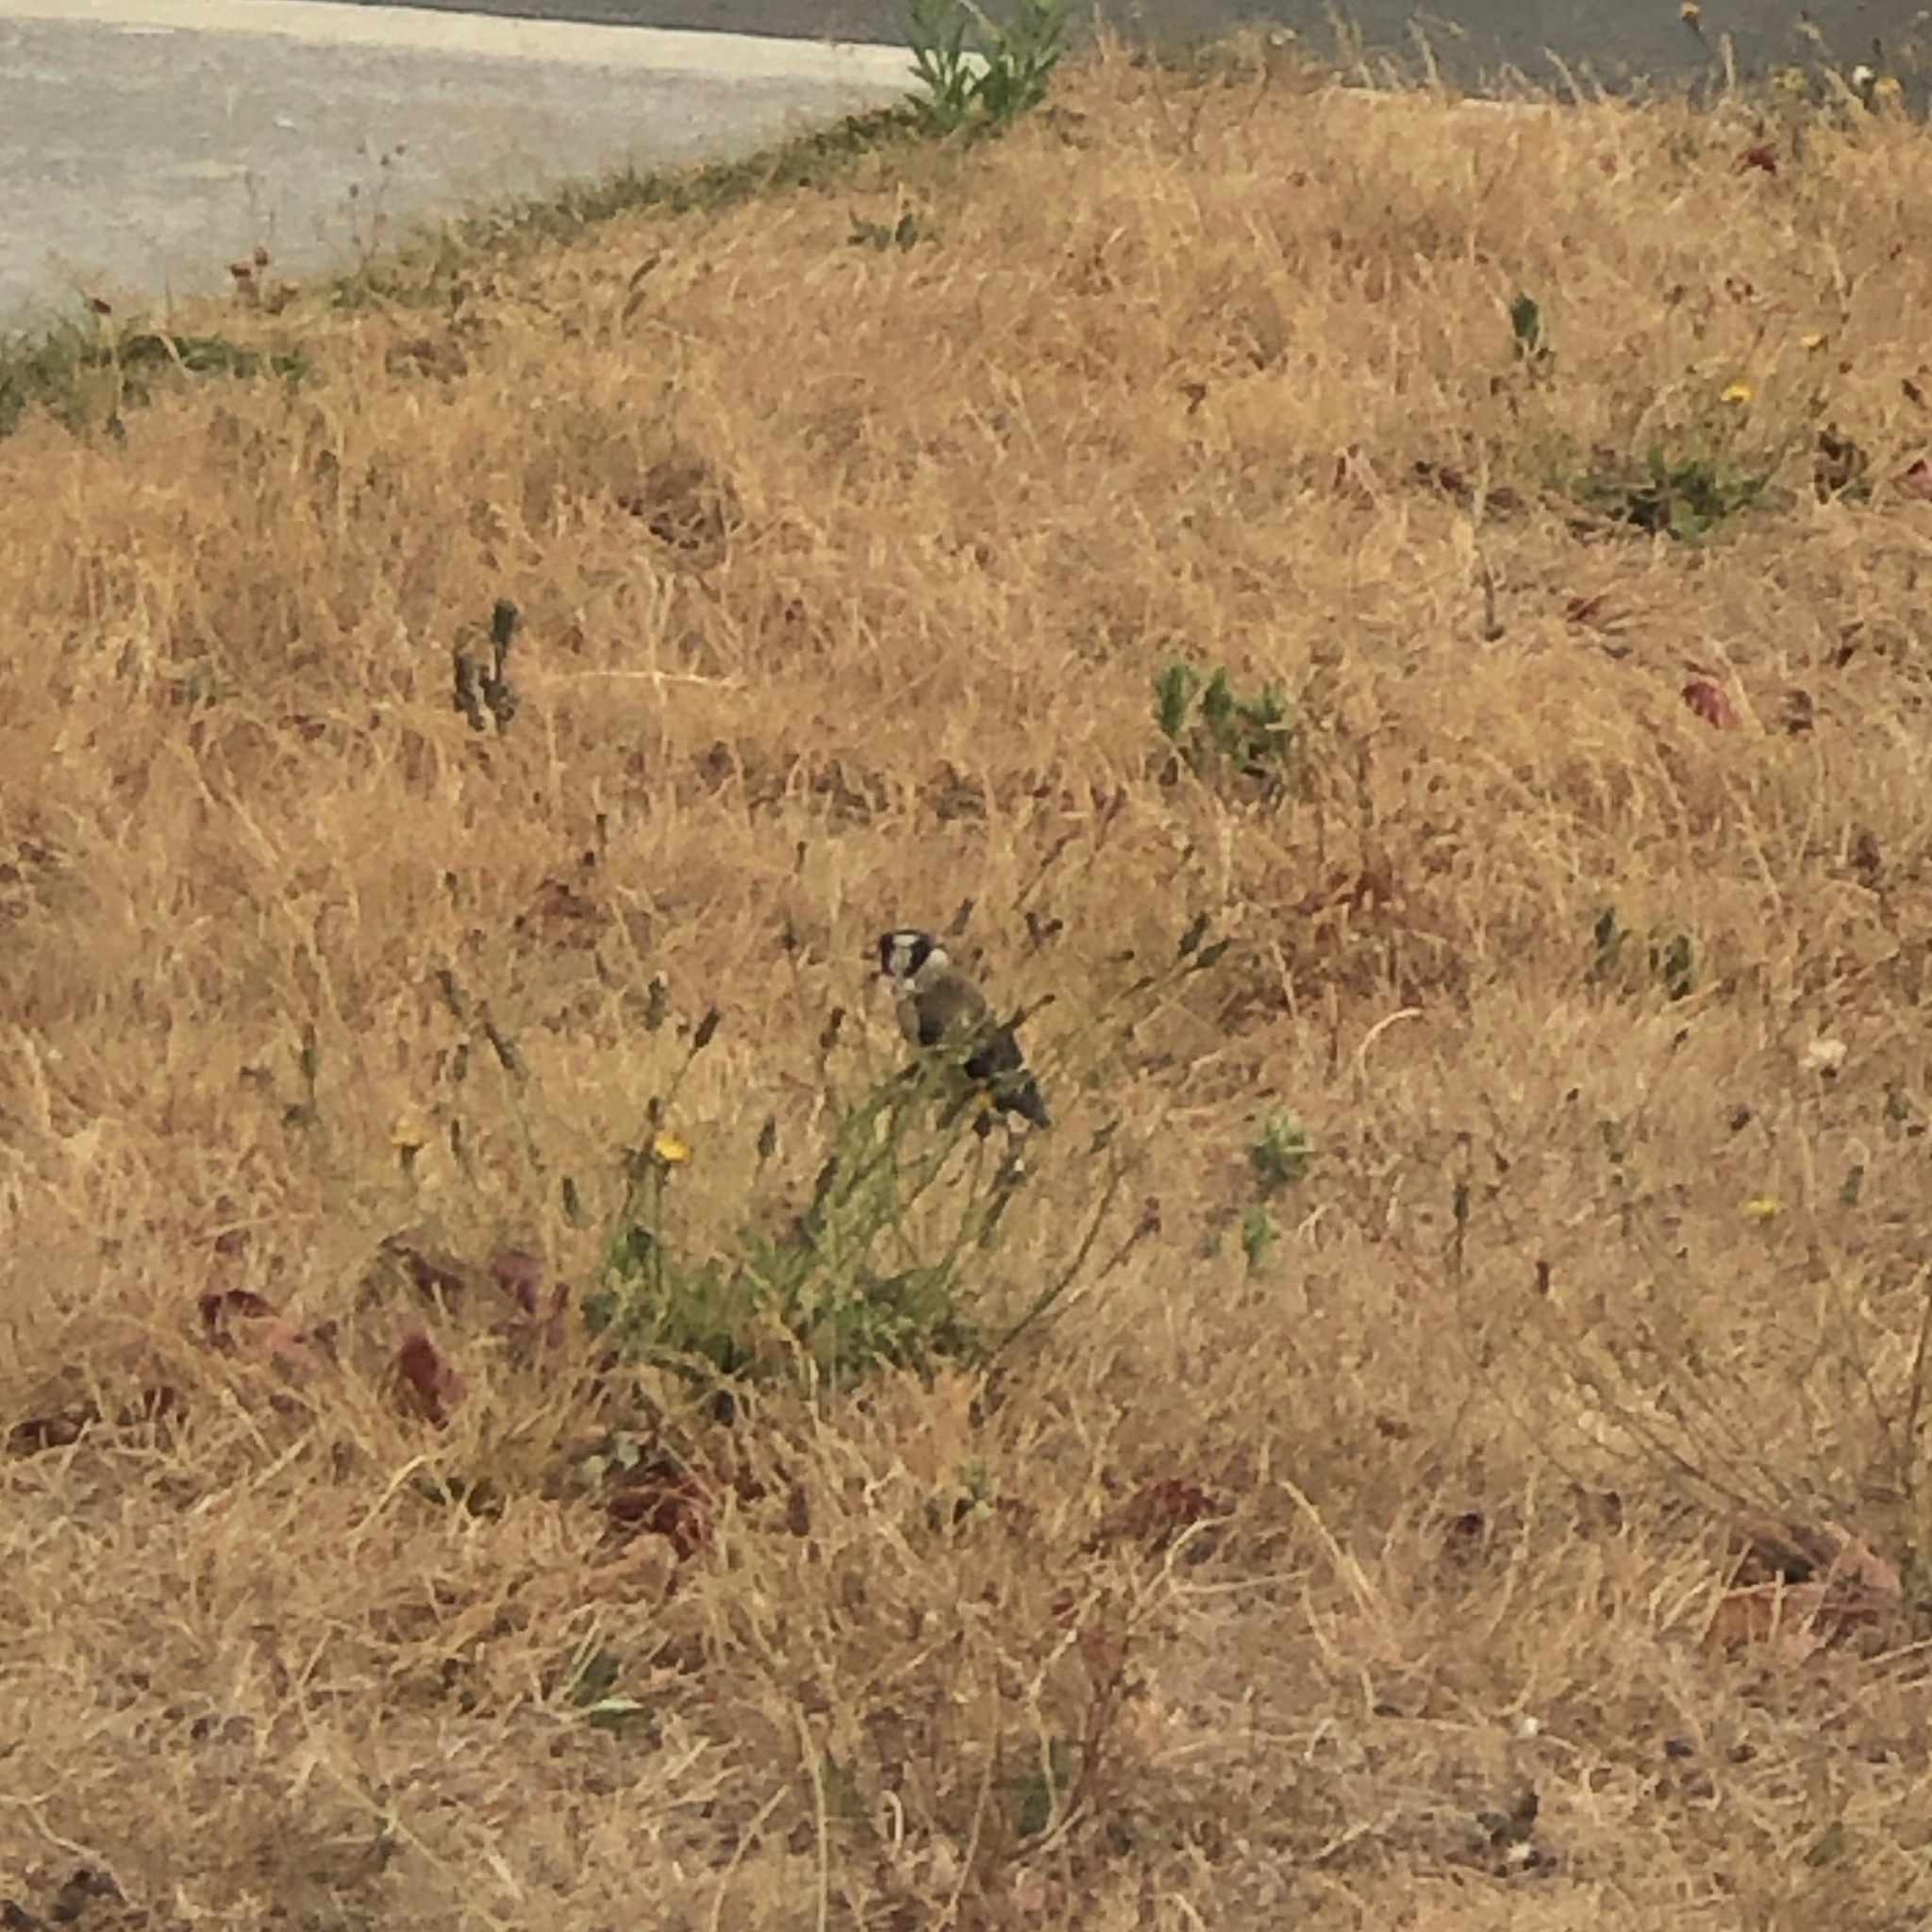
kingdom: Animalia
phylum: Chordata
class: Aves
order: Passeriformes
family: Fringillidae
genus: Carduelis
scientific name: Carduelis carduelis
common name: European goldfinch
